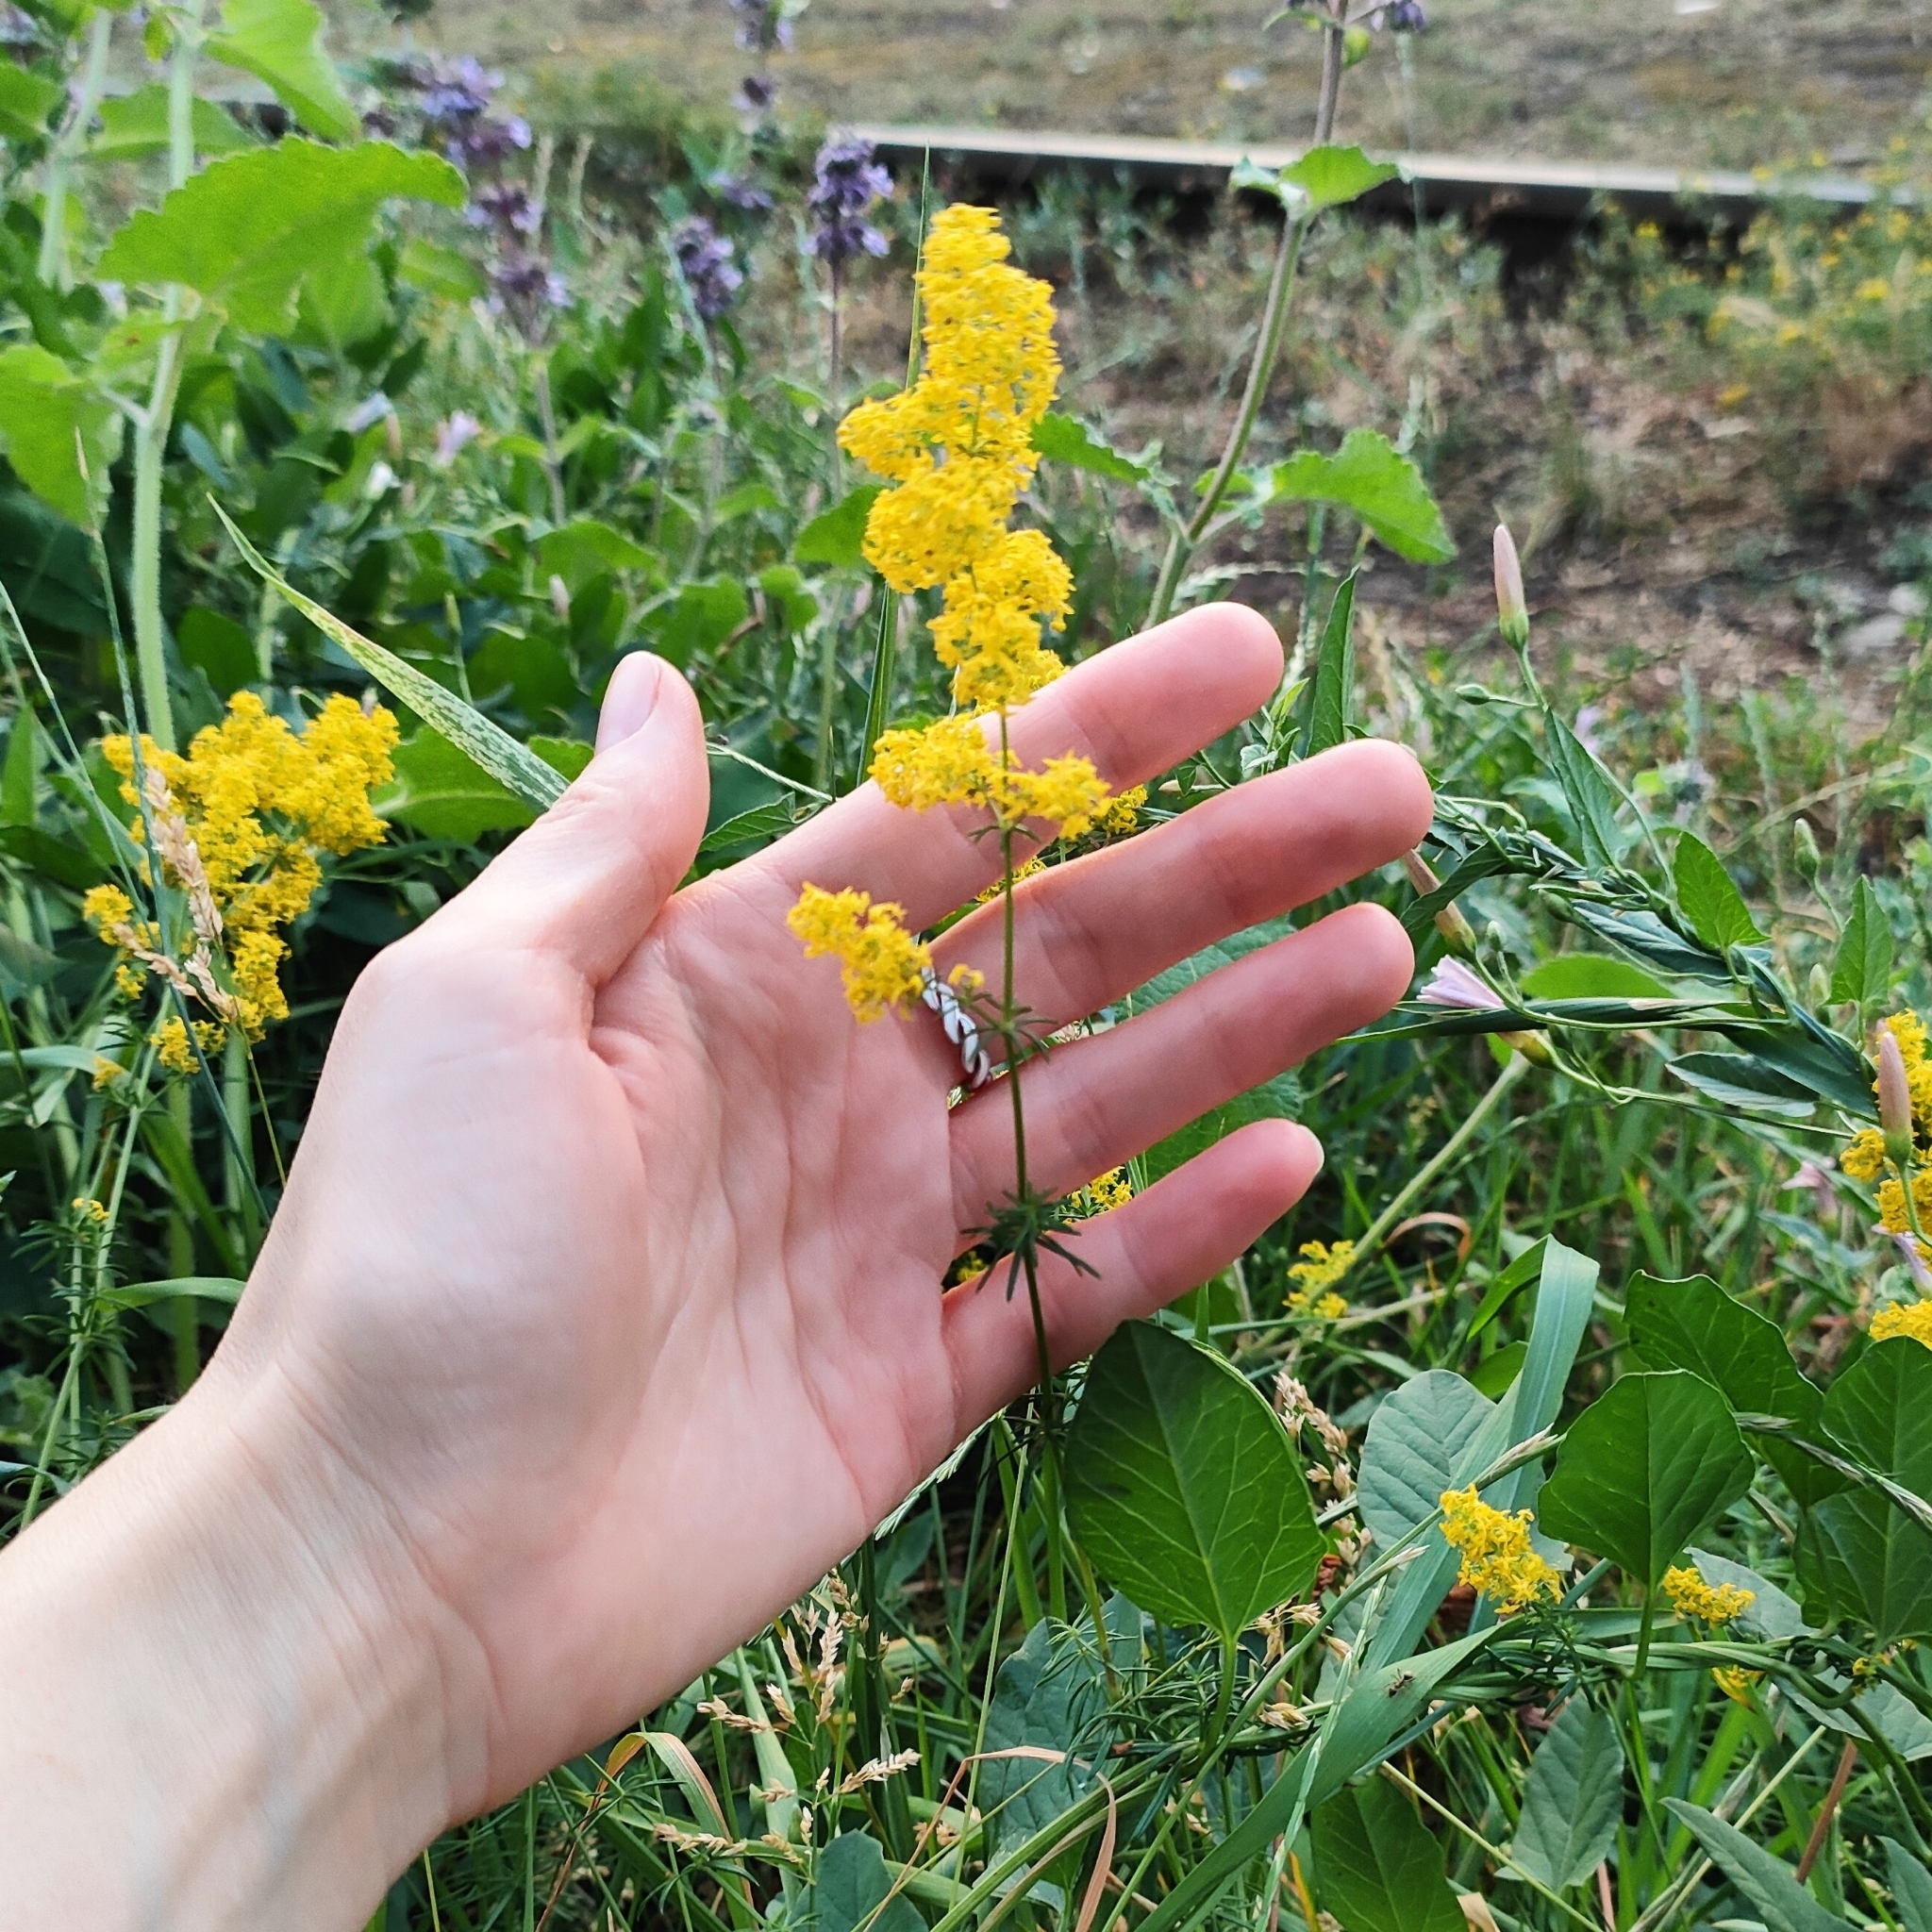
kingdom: Plantae
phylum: Tracheophyta
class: Magnoliopsida
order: Gentianales
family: Rubiaceae
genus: Galium
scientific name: Galium verum
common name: Lady's bedstraw
